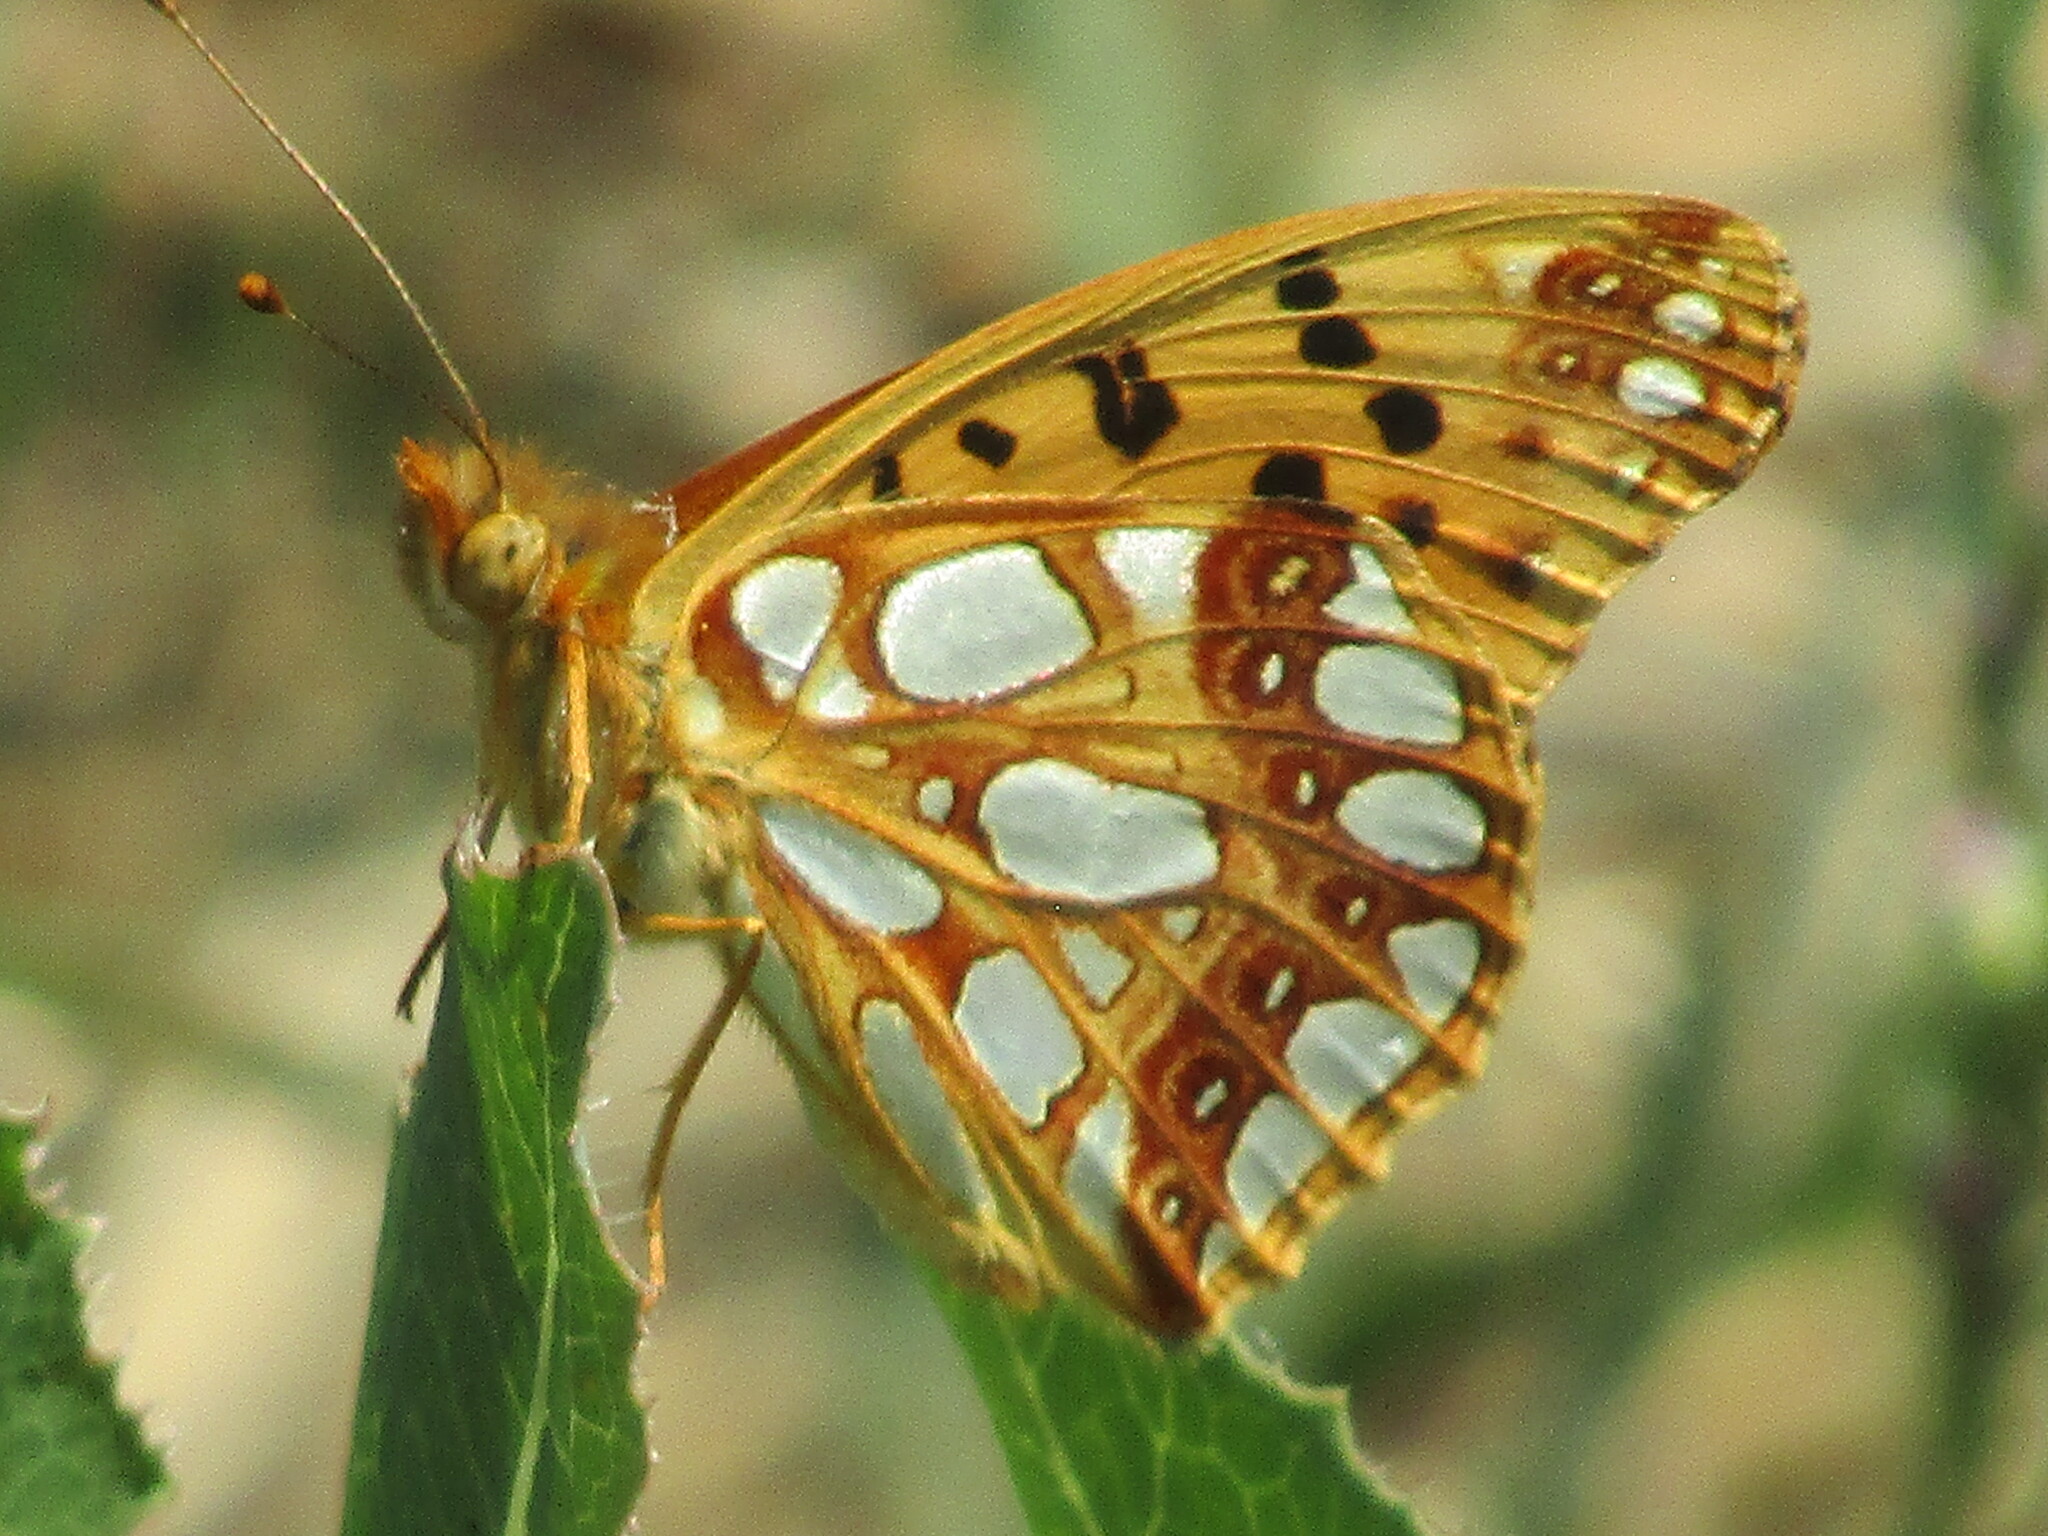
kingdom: Animalia
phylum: Arthropoda
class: Insecta
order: Lepidoptera
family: Nymphalidae
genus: Issoria
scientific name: Issoria lathonia
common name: Queen of spain fritillary
